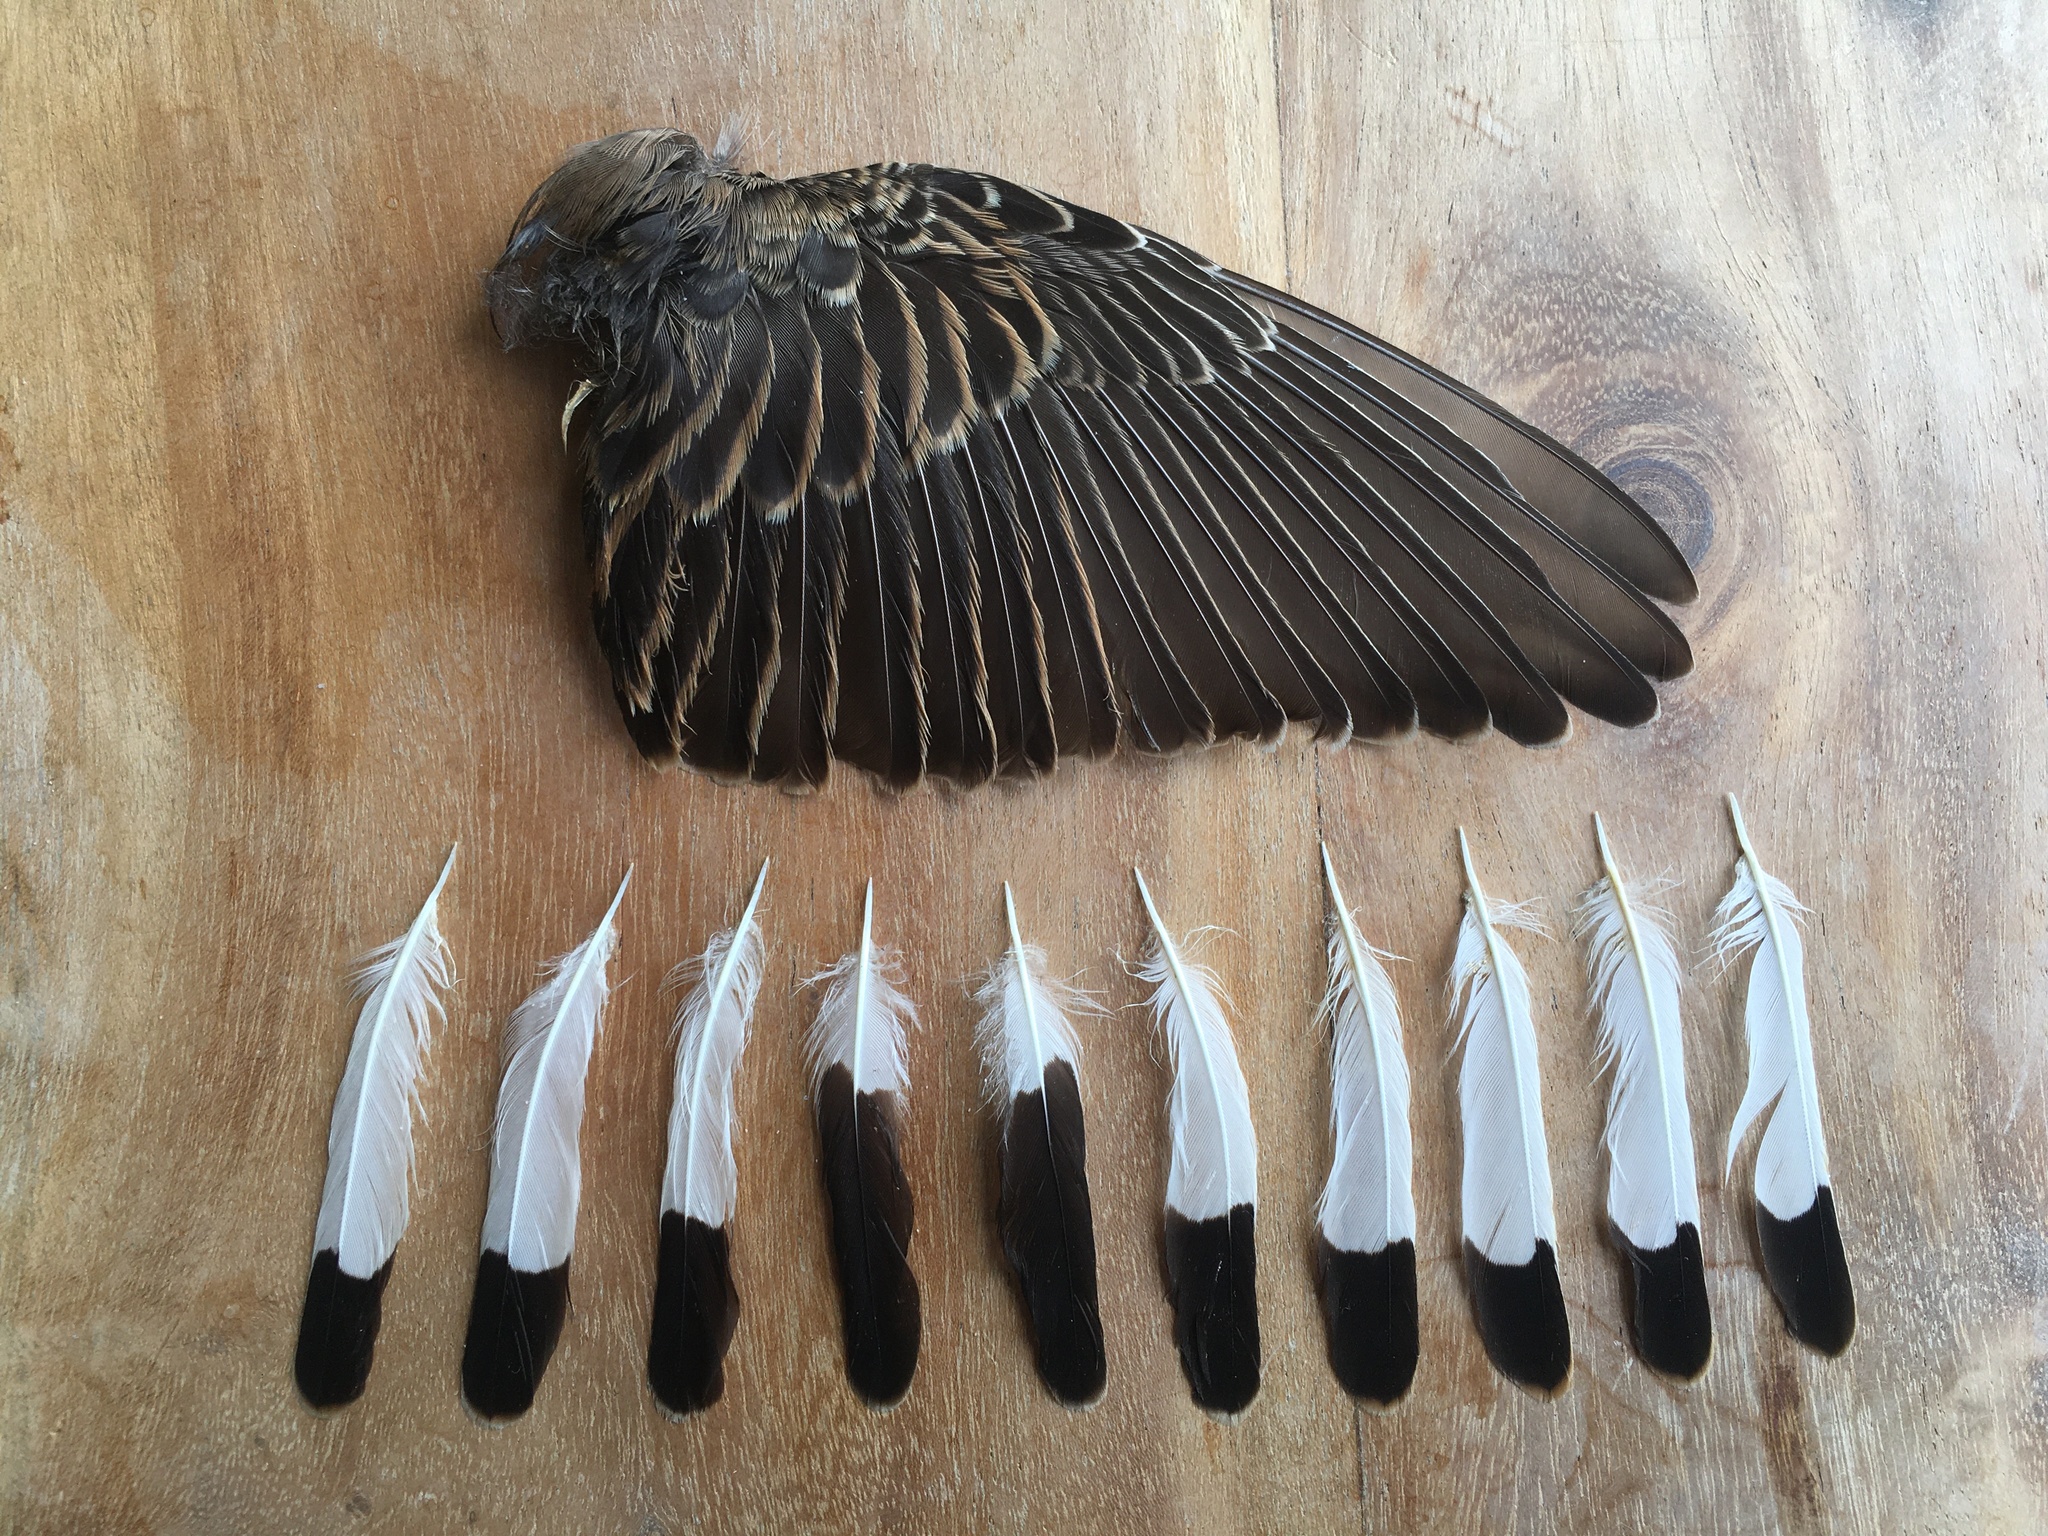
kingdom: Animalia
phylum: Chordata
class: Aves
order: Passeriformes
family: Muscicapidae
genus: Oenanthe
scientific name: Oenanthe oenanthe
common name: Northern wheatear
